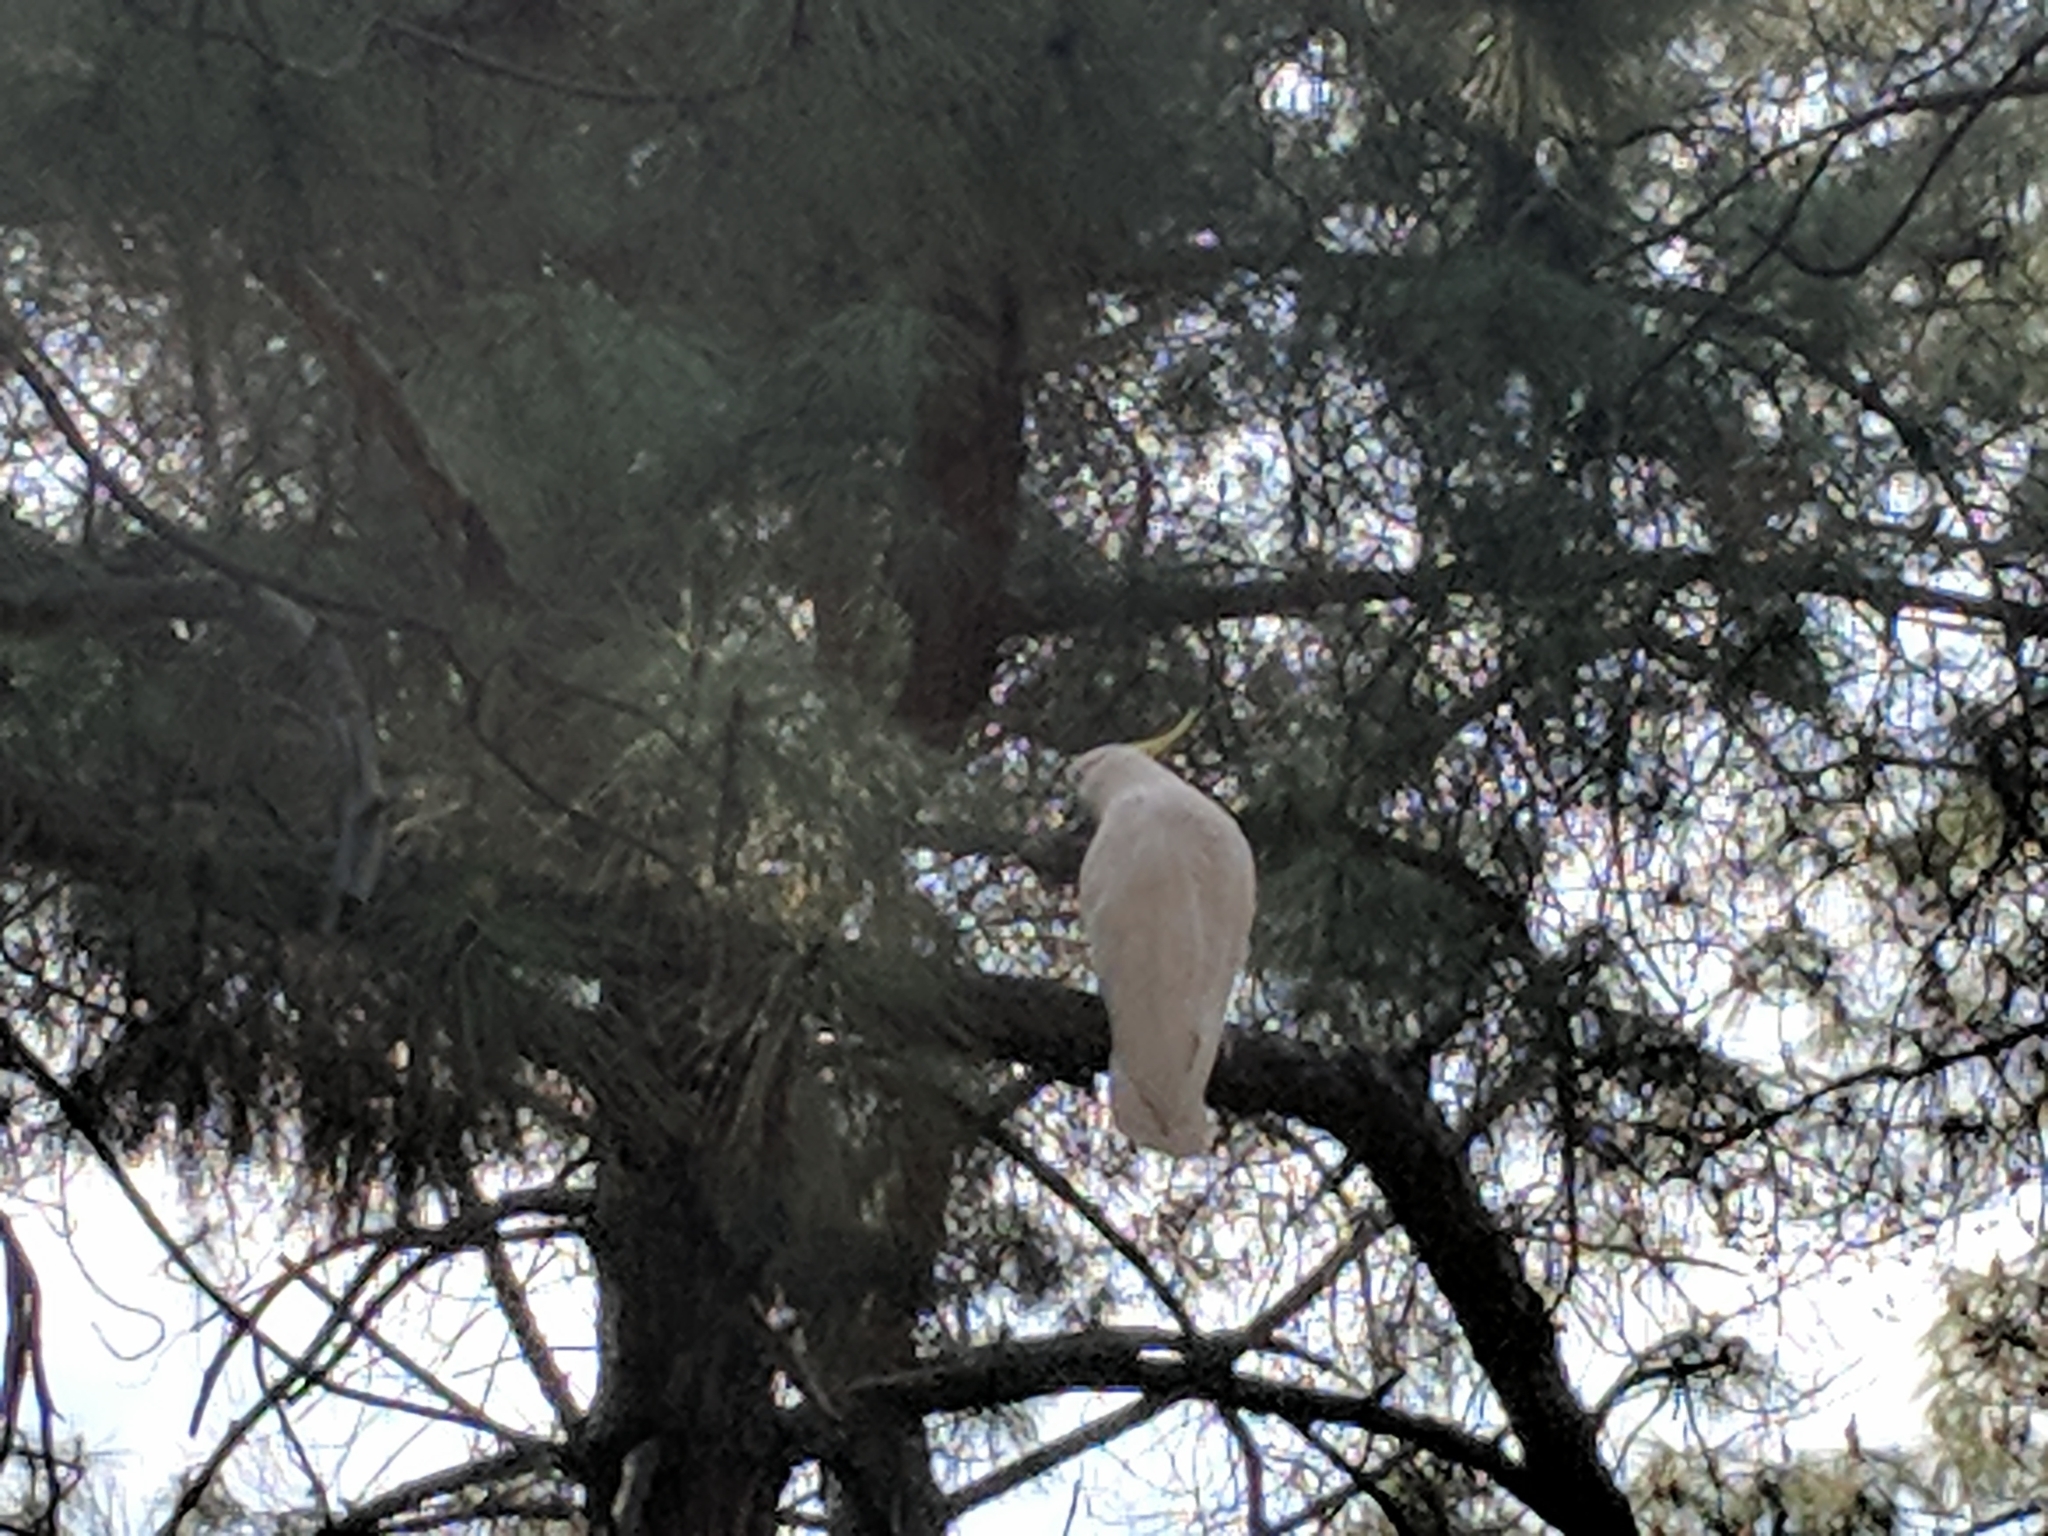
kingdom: Animalia
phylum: Chordata
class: Aves
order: Psittaciformes
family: Psittacidae
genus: Cacatua
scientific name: Cacatua galerita
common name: Sulphur-crested cockatoo
